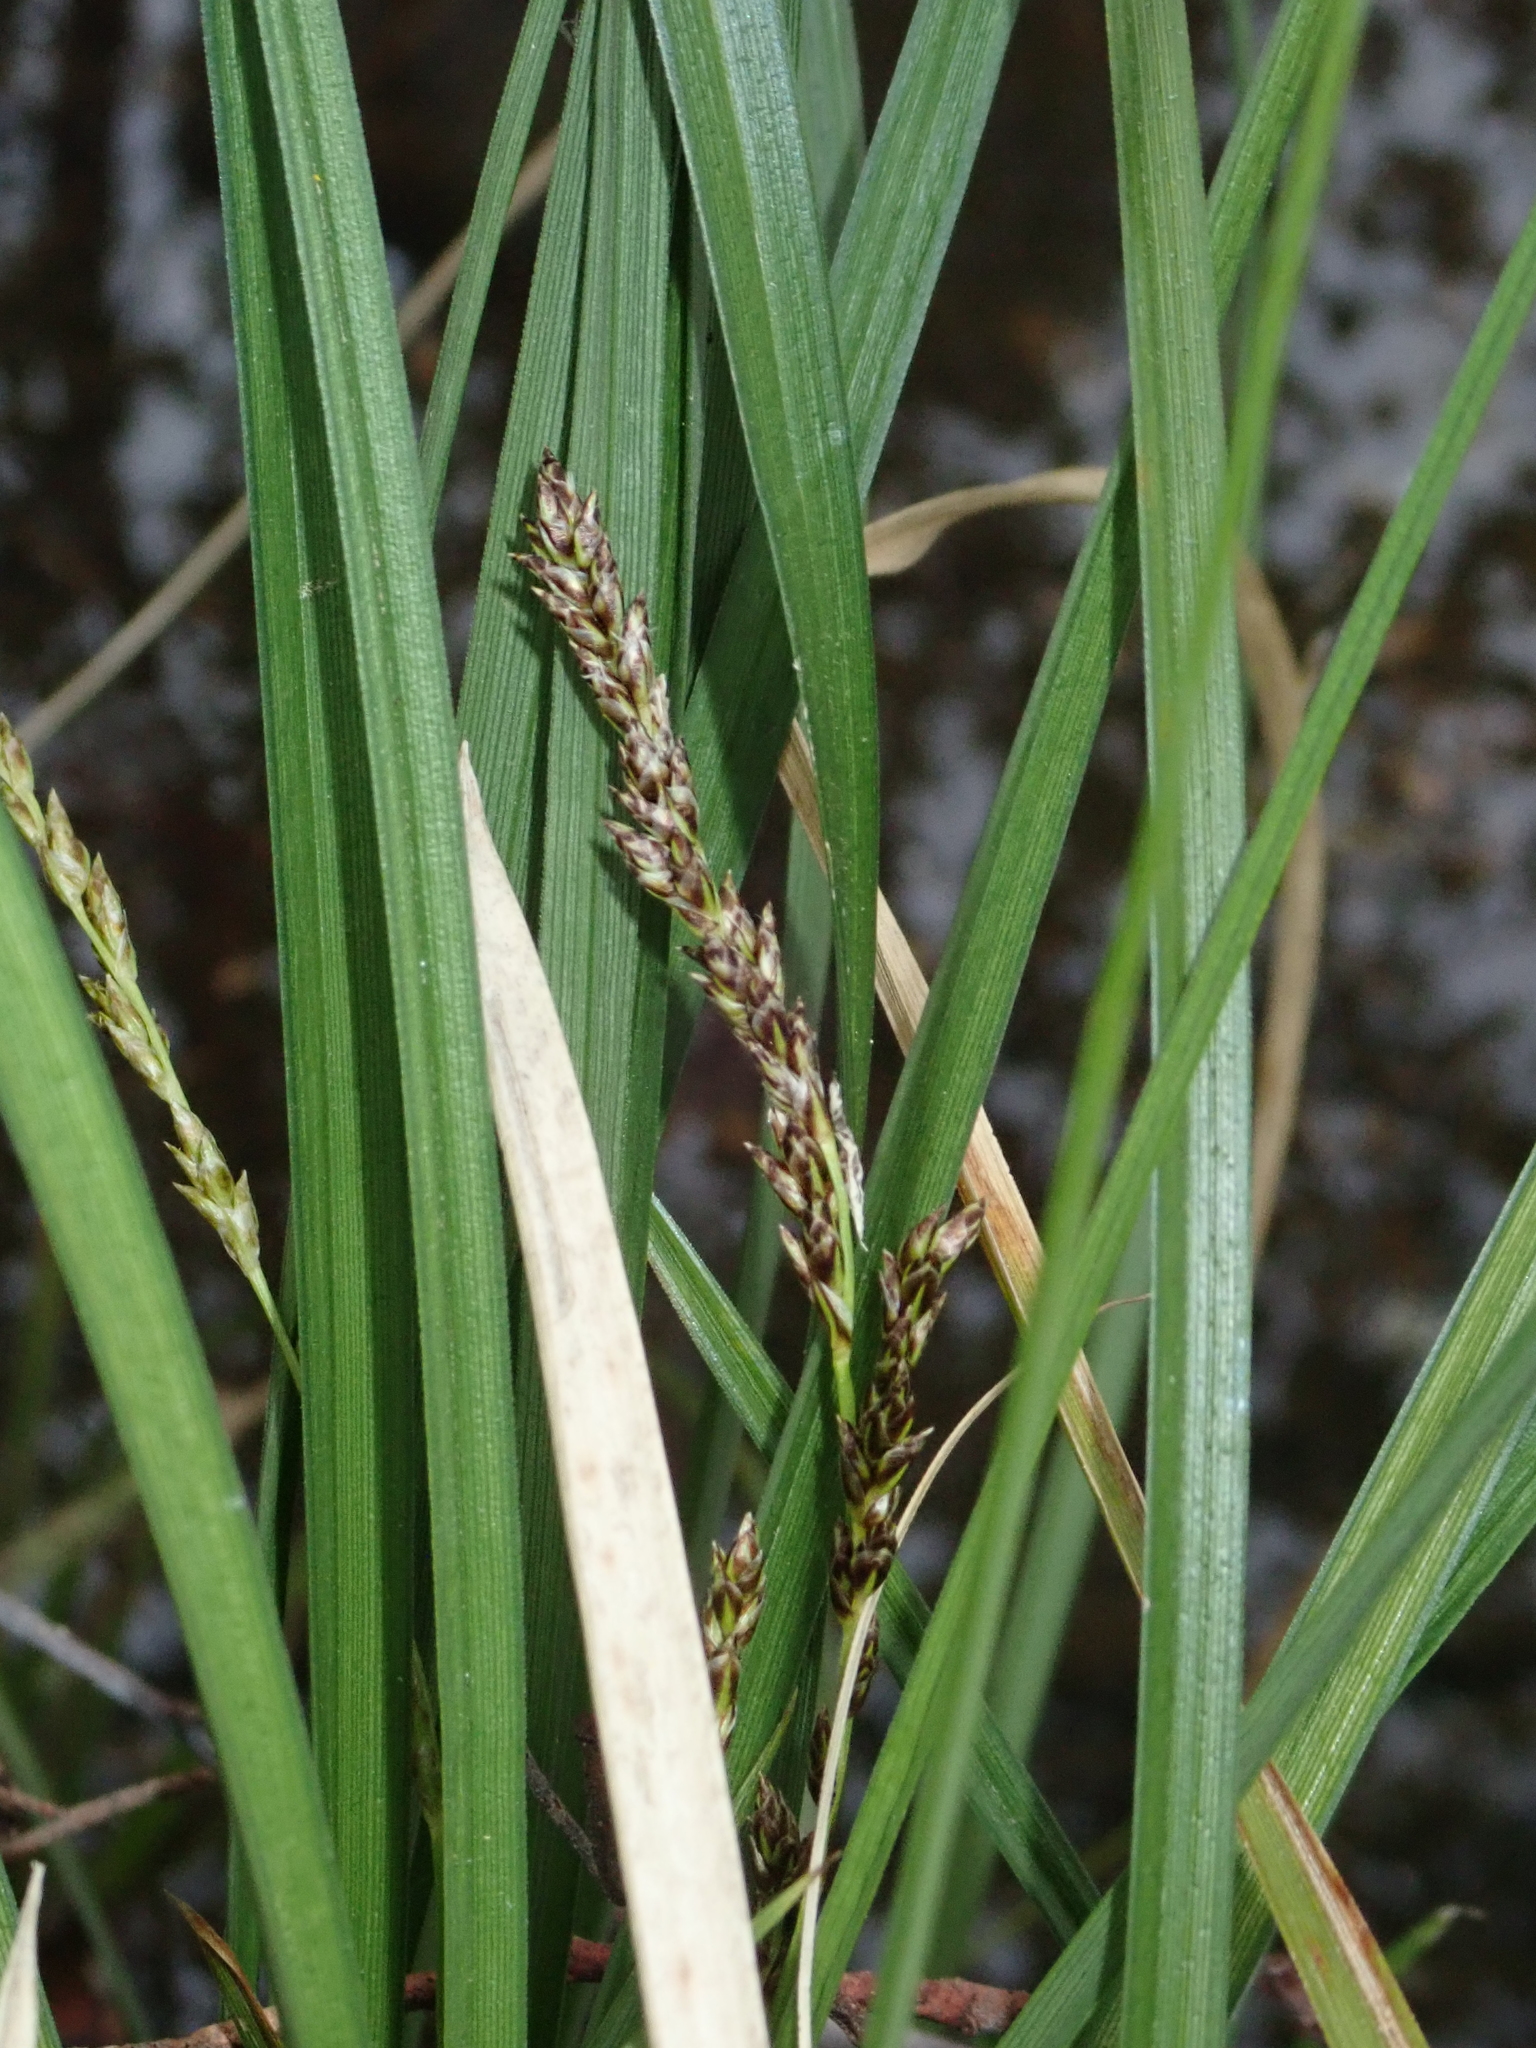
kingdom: Plantae
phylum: Tracheophyta
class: Liliopsida
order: Poales
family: Cyperaceae
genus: Carex
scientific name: Carex paniculata
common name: Greater tussock-sedge
